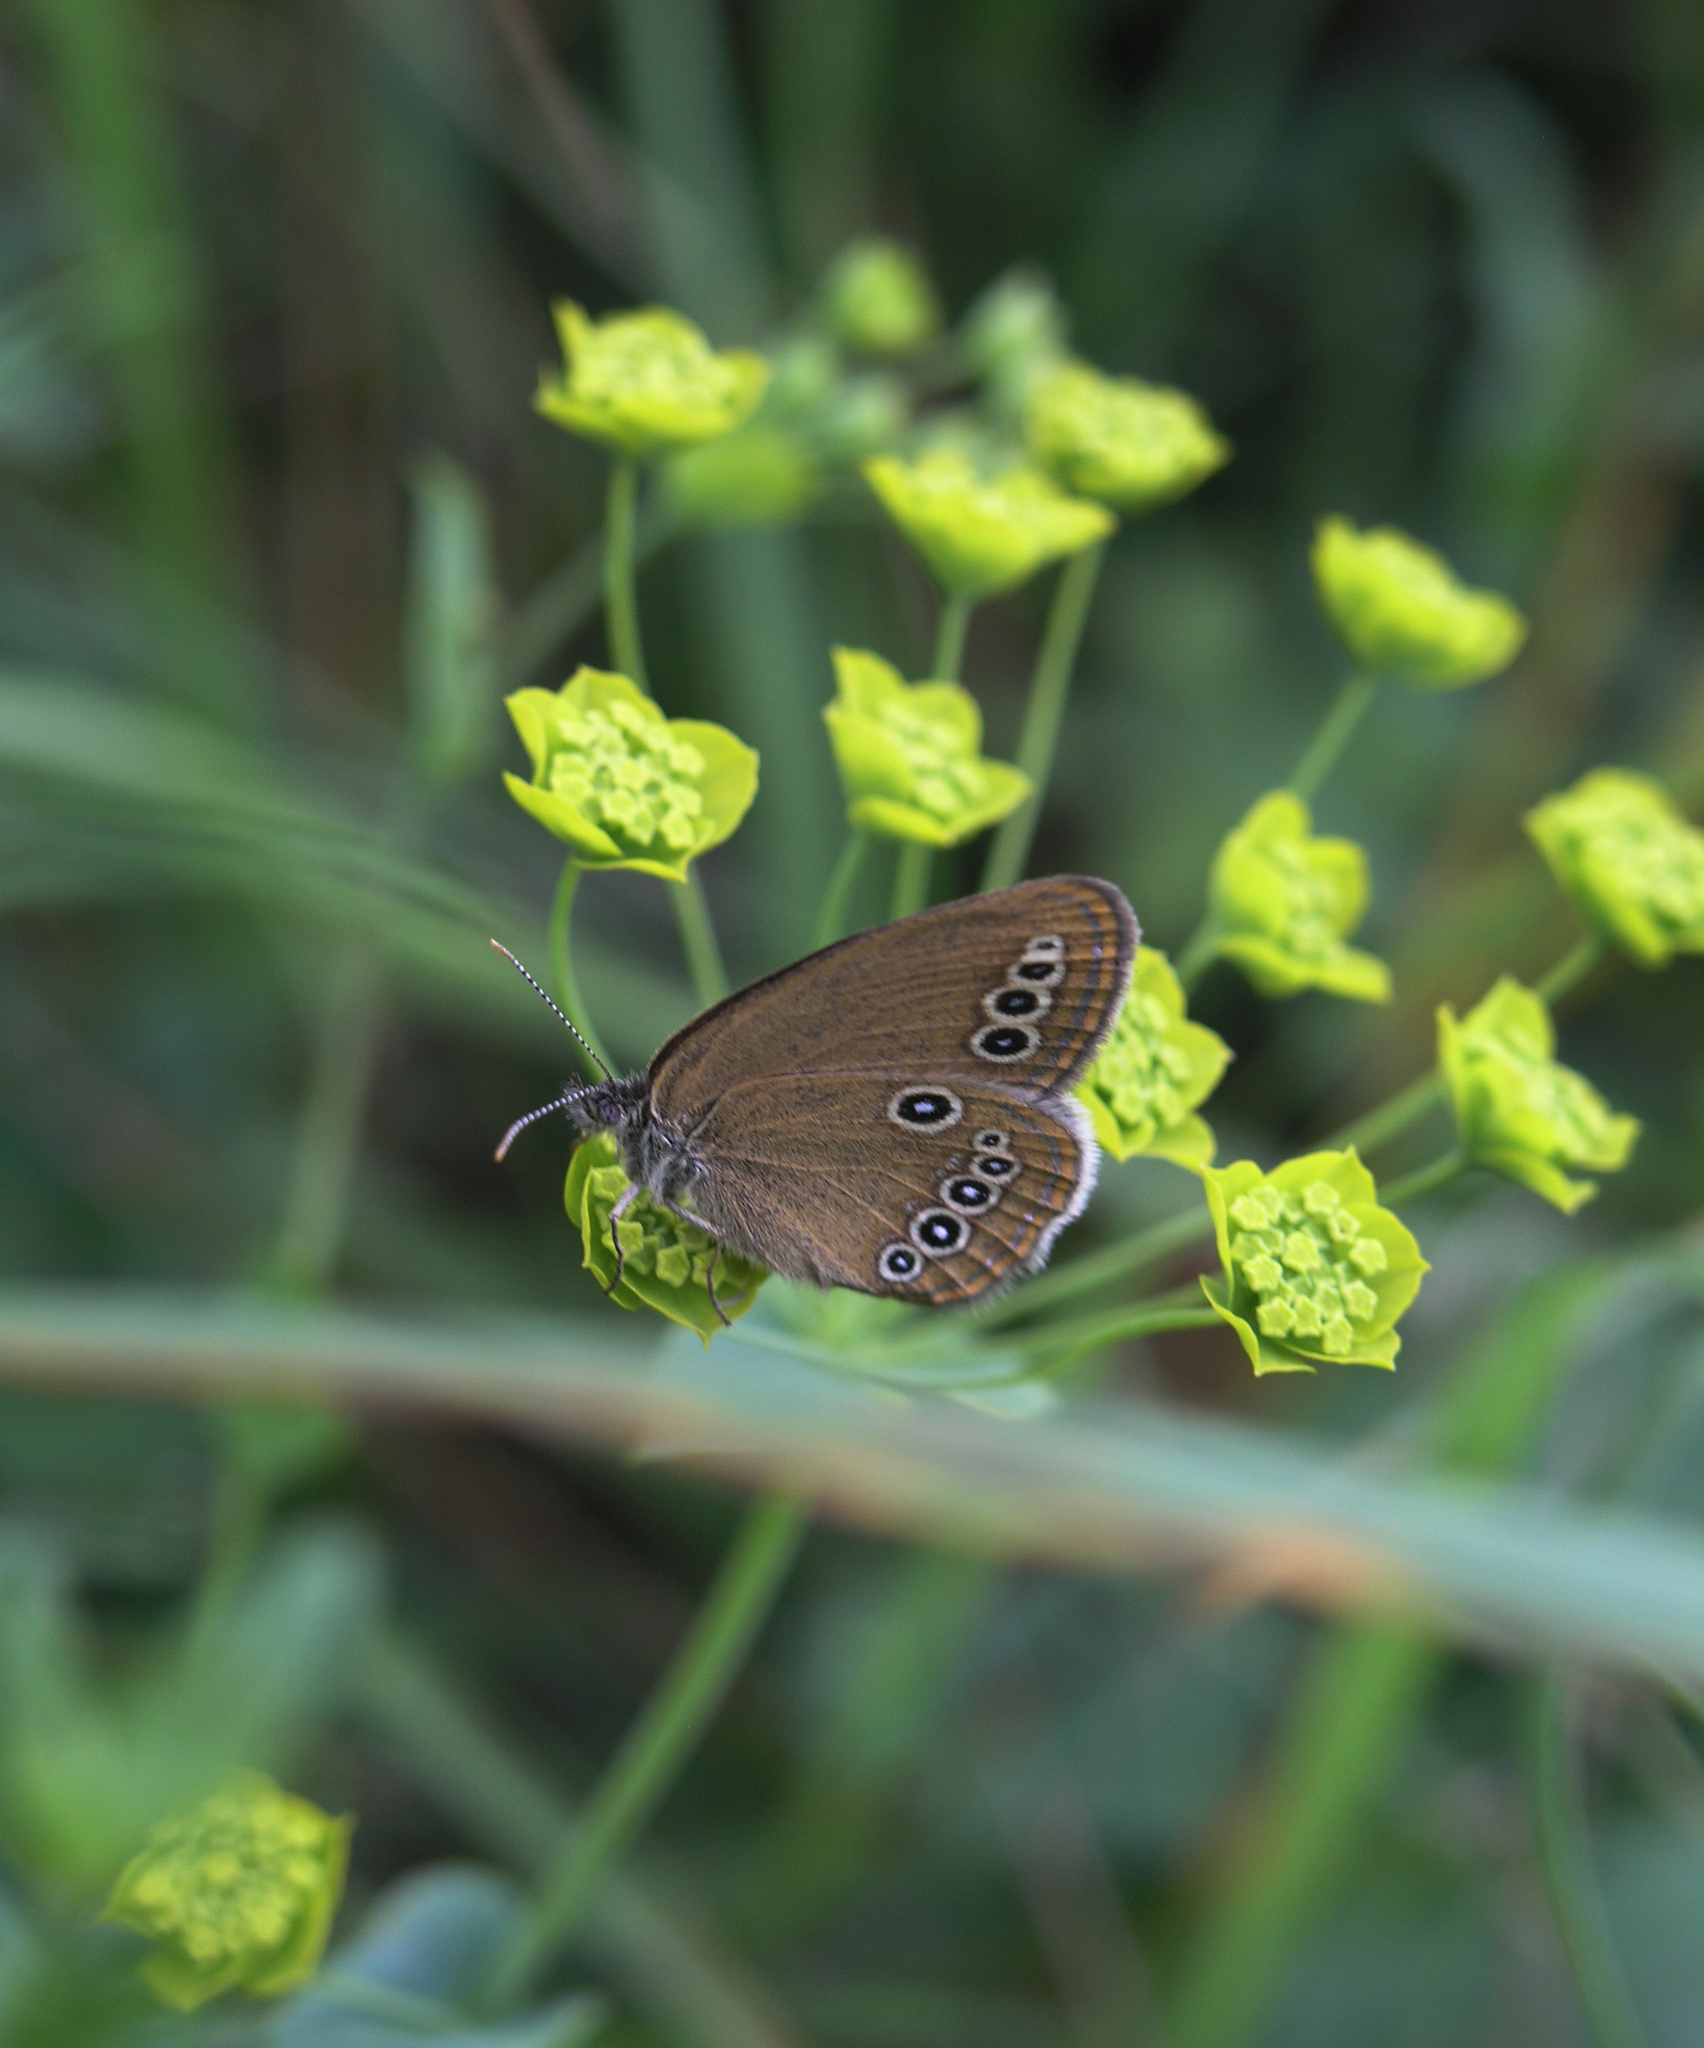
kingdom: Animalia
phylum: Arthropoda
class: Insecta
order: Lepidoptera
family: Nymphalidae
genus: Coenonympha
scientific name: Coenonympha oedippus
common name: False ringlet
